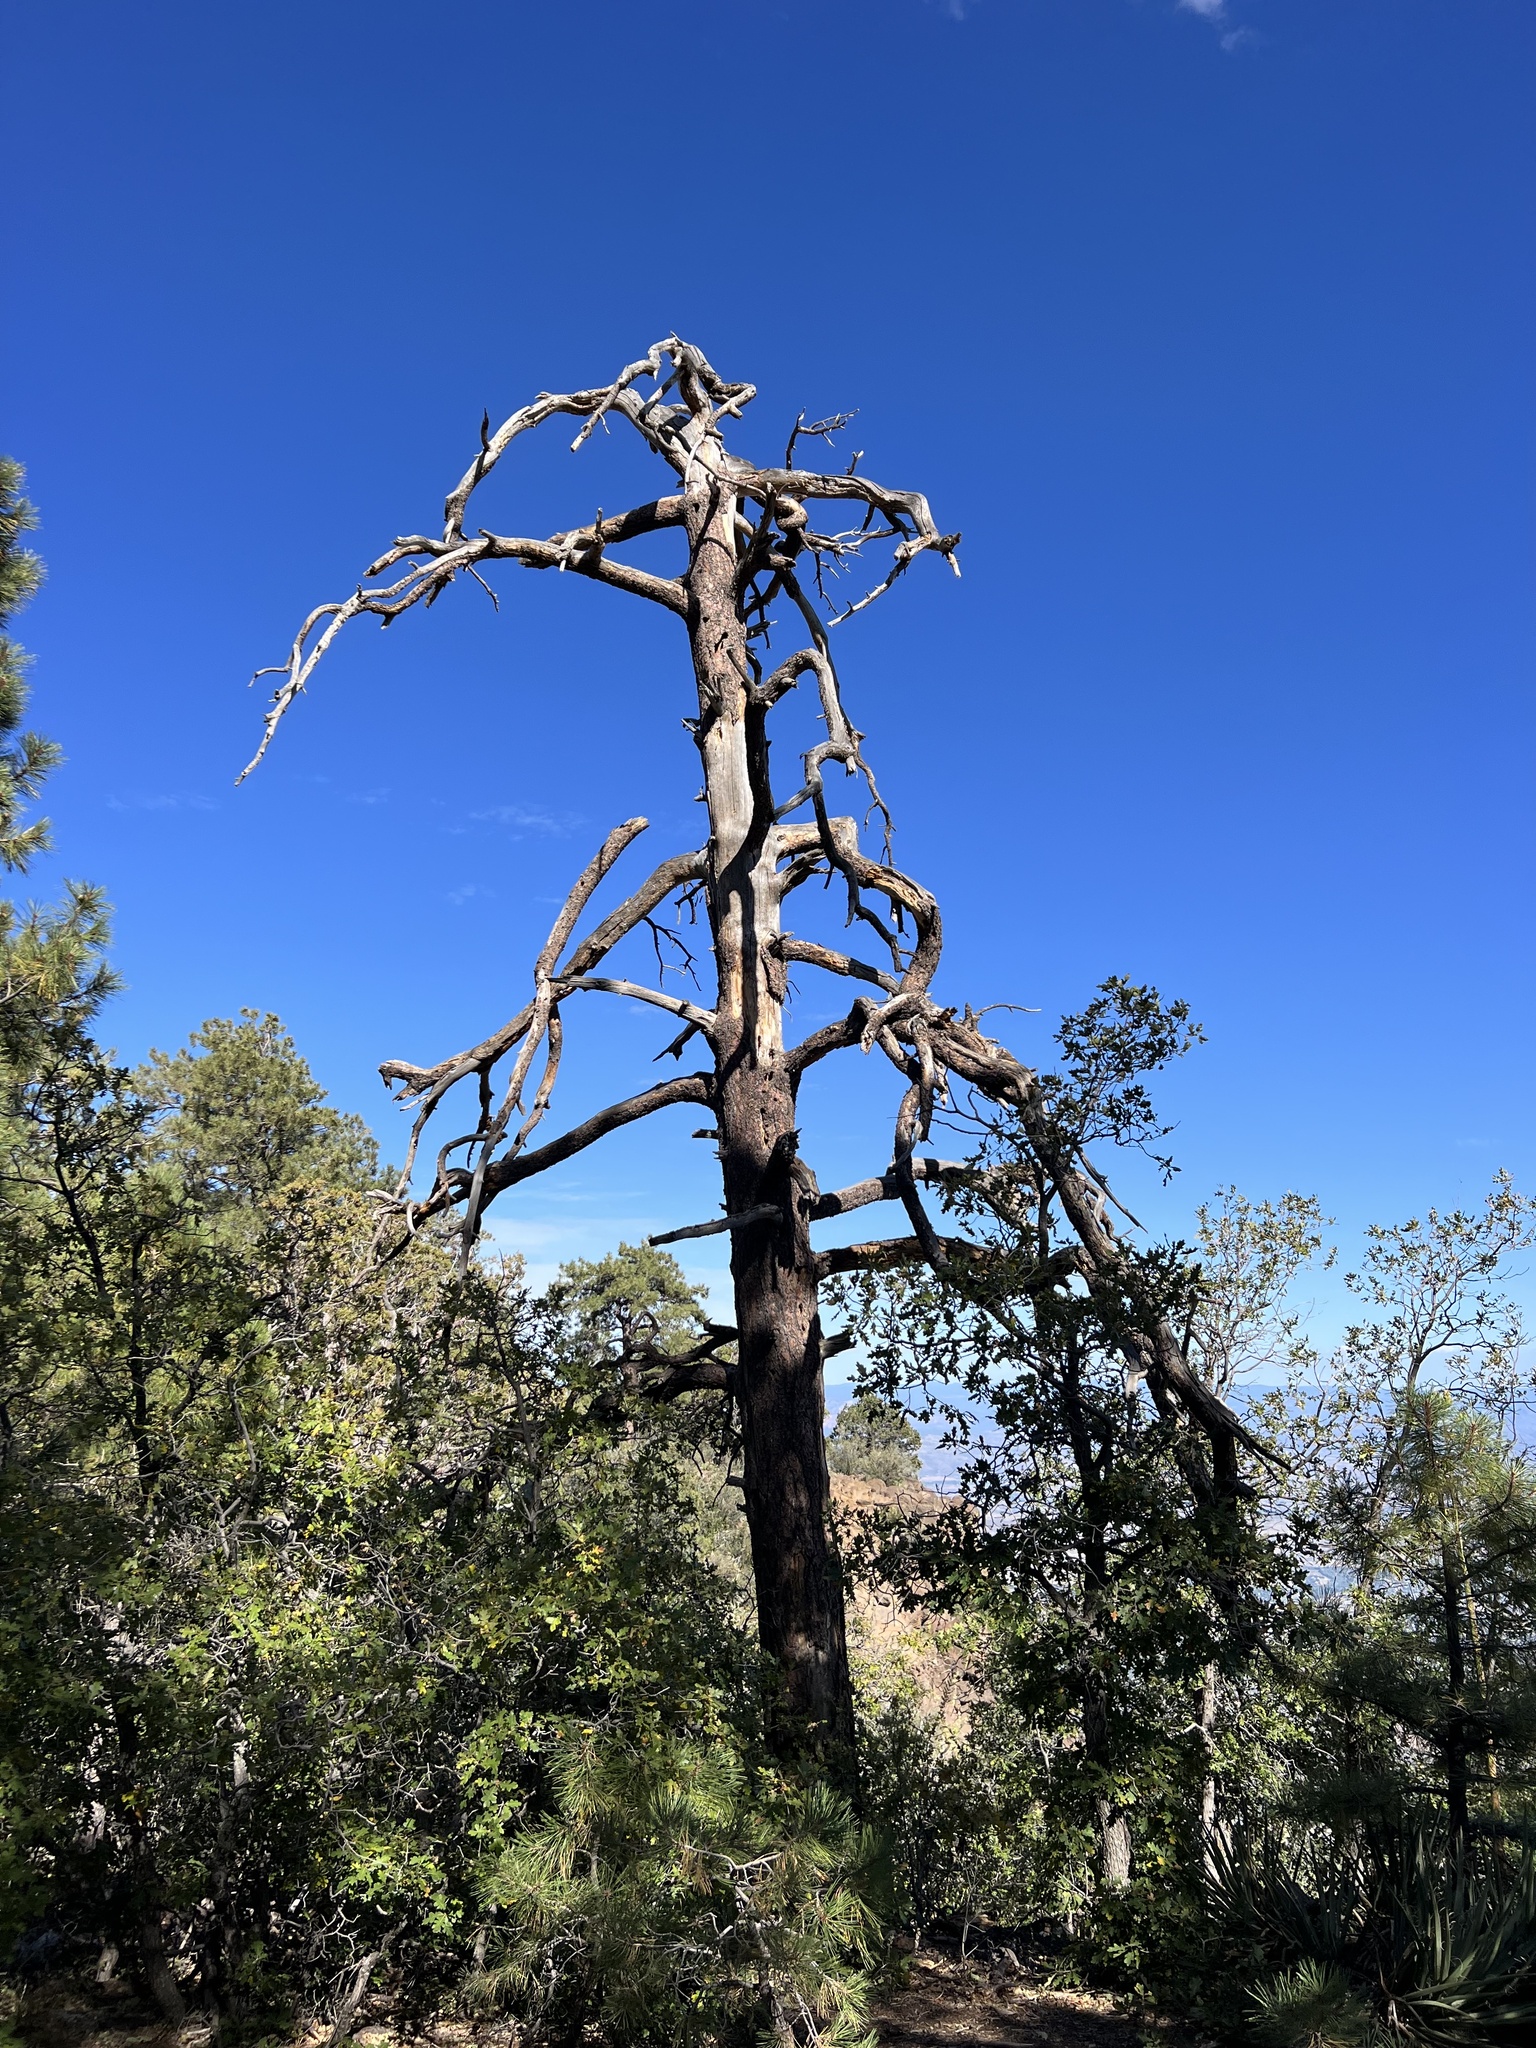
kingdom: Plantae
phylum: Tracheophyta
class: Pinopsida
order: Pinales
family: Pinaceae
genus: Pinus
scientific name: Pinus ponderosa
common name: Western yellow-pine
